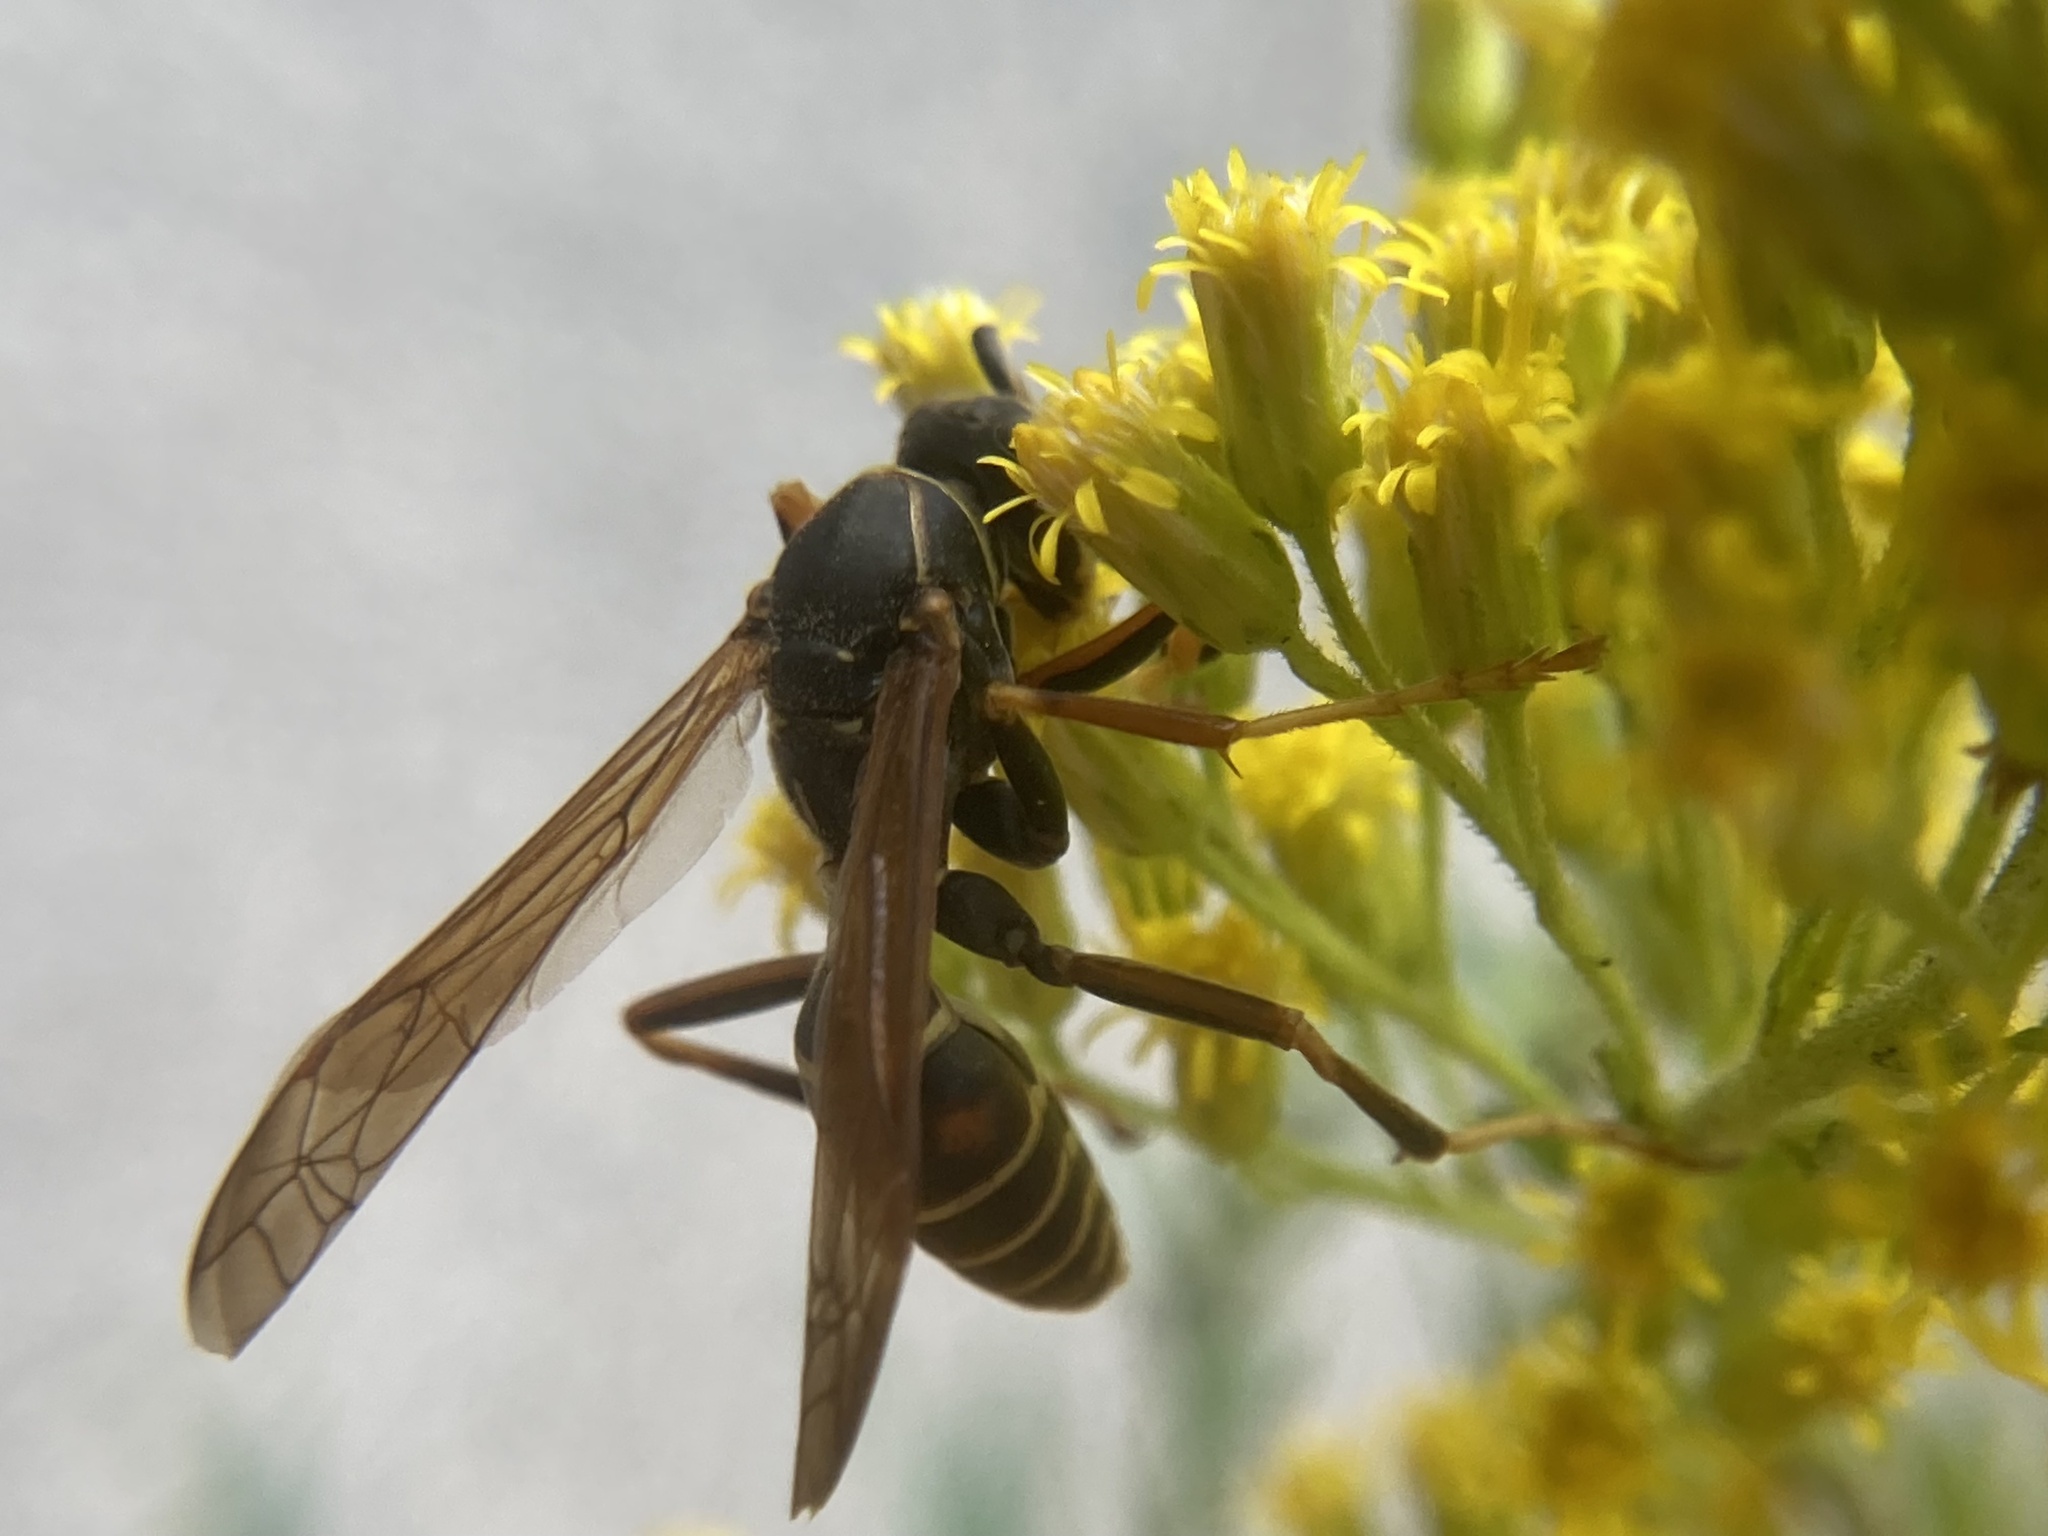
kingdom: Animalia
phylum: Arthropoda
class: Insecta
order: Hymenoptera
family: Eumenidae
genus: Polistes
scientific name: Polistes fuscatus
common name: Dark paper wasp
